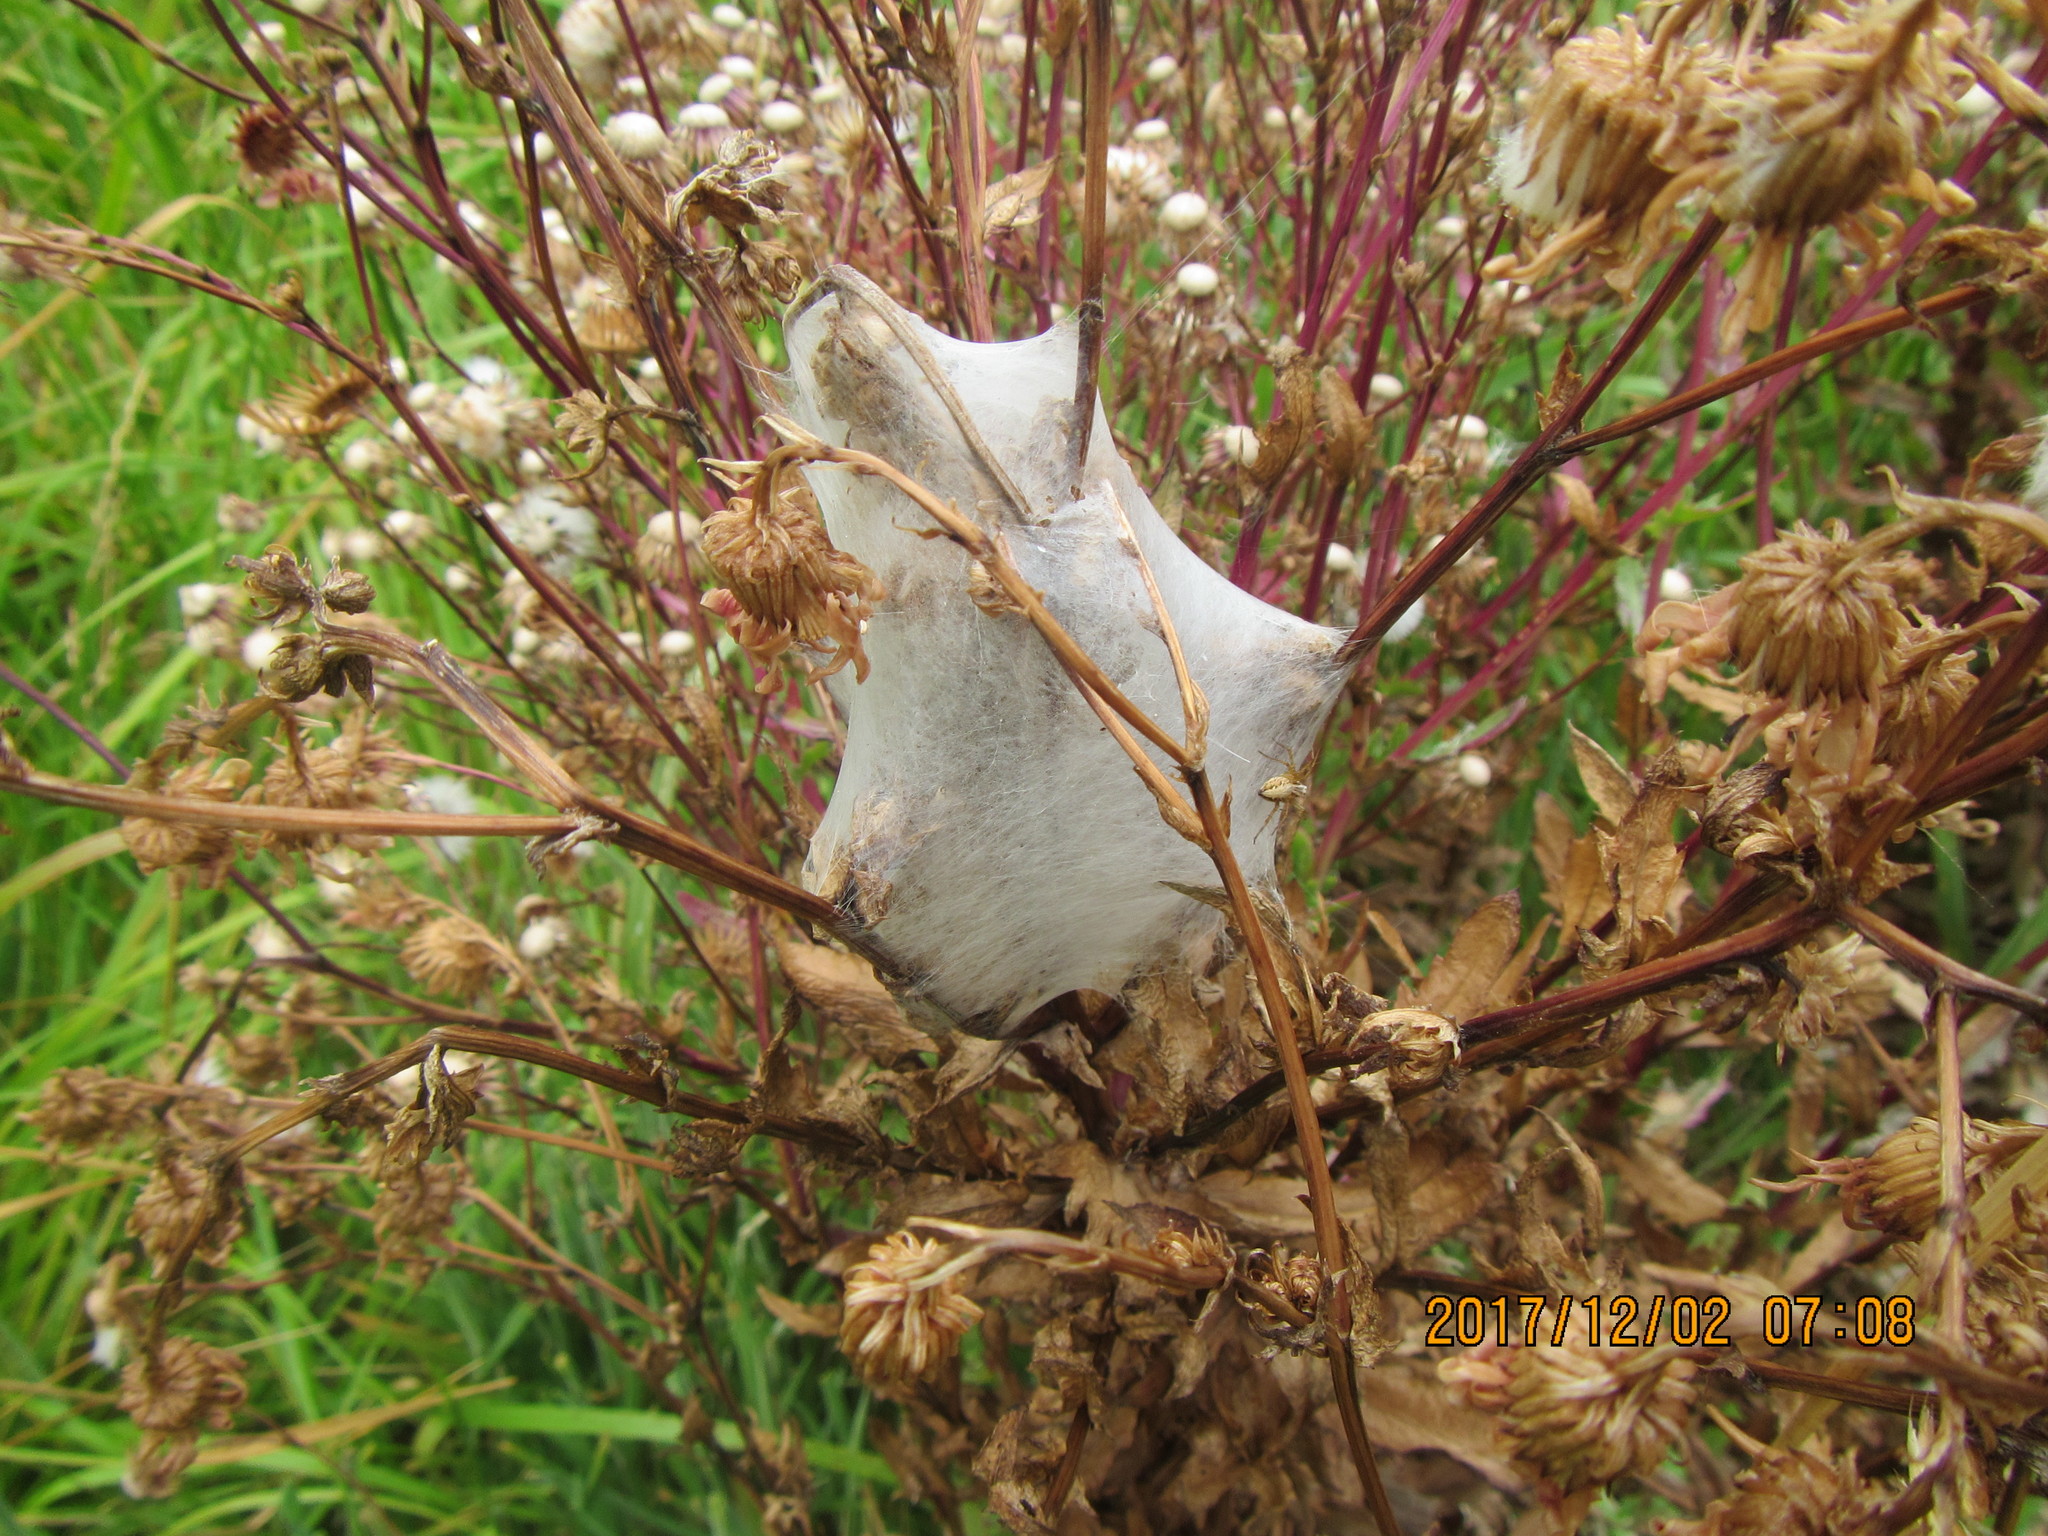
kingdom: Animalia
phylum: Arthropoda
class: Arachnida
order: Araneae
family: Oxyopidae
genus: Oxyopes
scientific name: Oxyopes gracilipes
